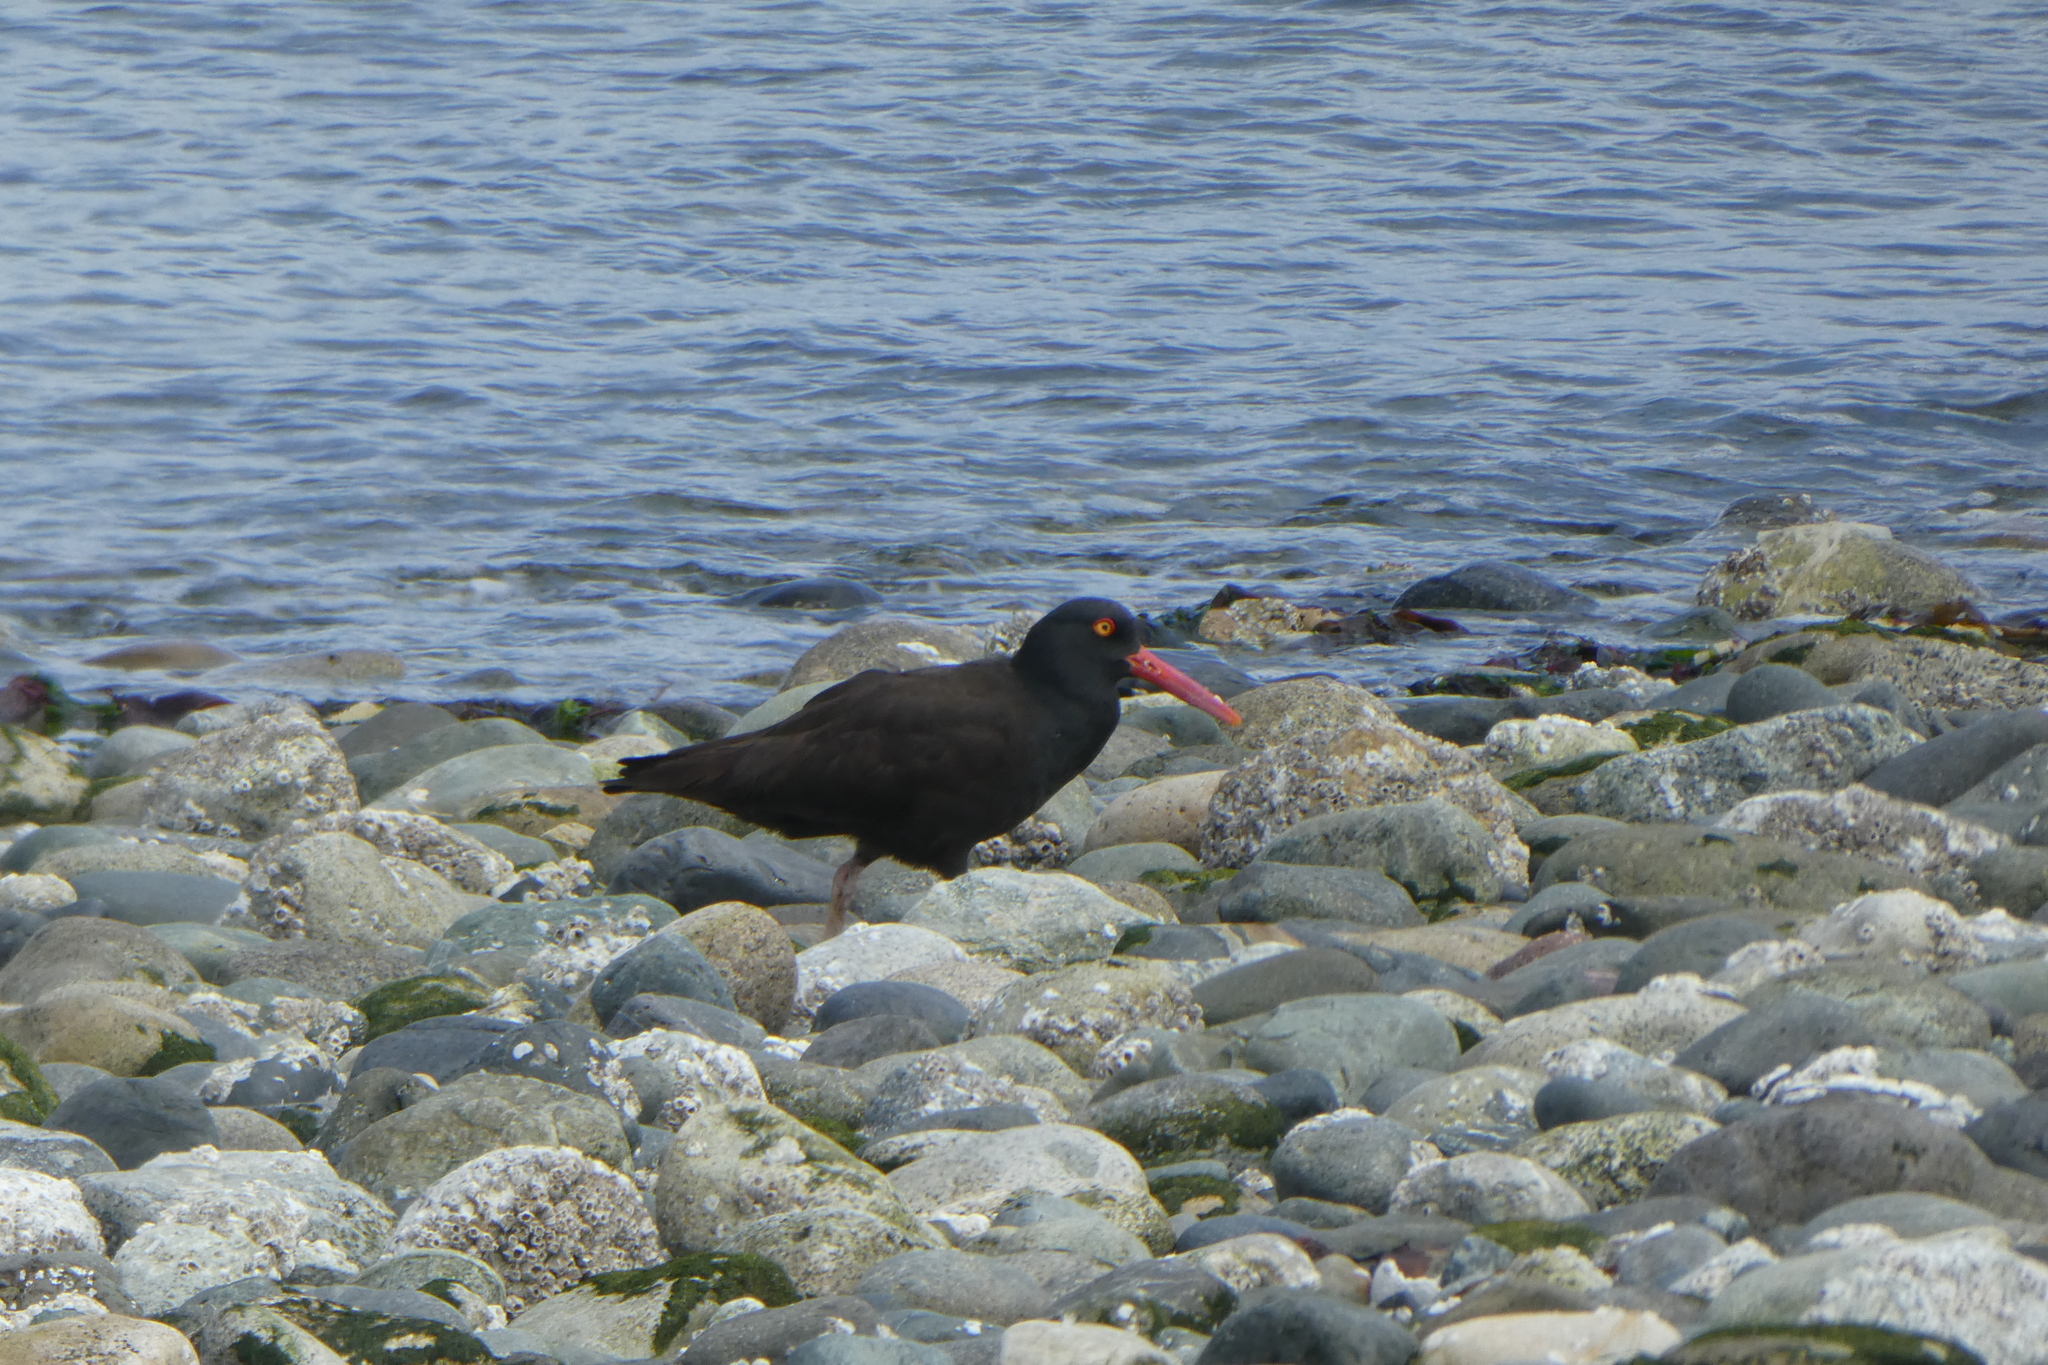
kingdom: Animalia
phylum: Chordata
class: Aves
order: Charadriiformes
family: Haematopodidae
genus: Haematopus
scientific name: Haematopus bachmani
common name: Black oystercatcher
